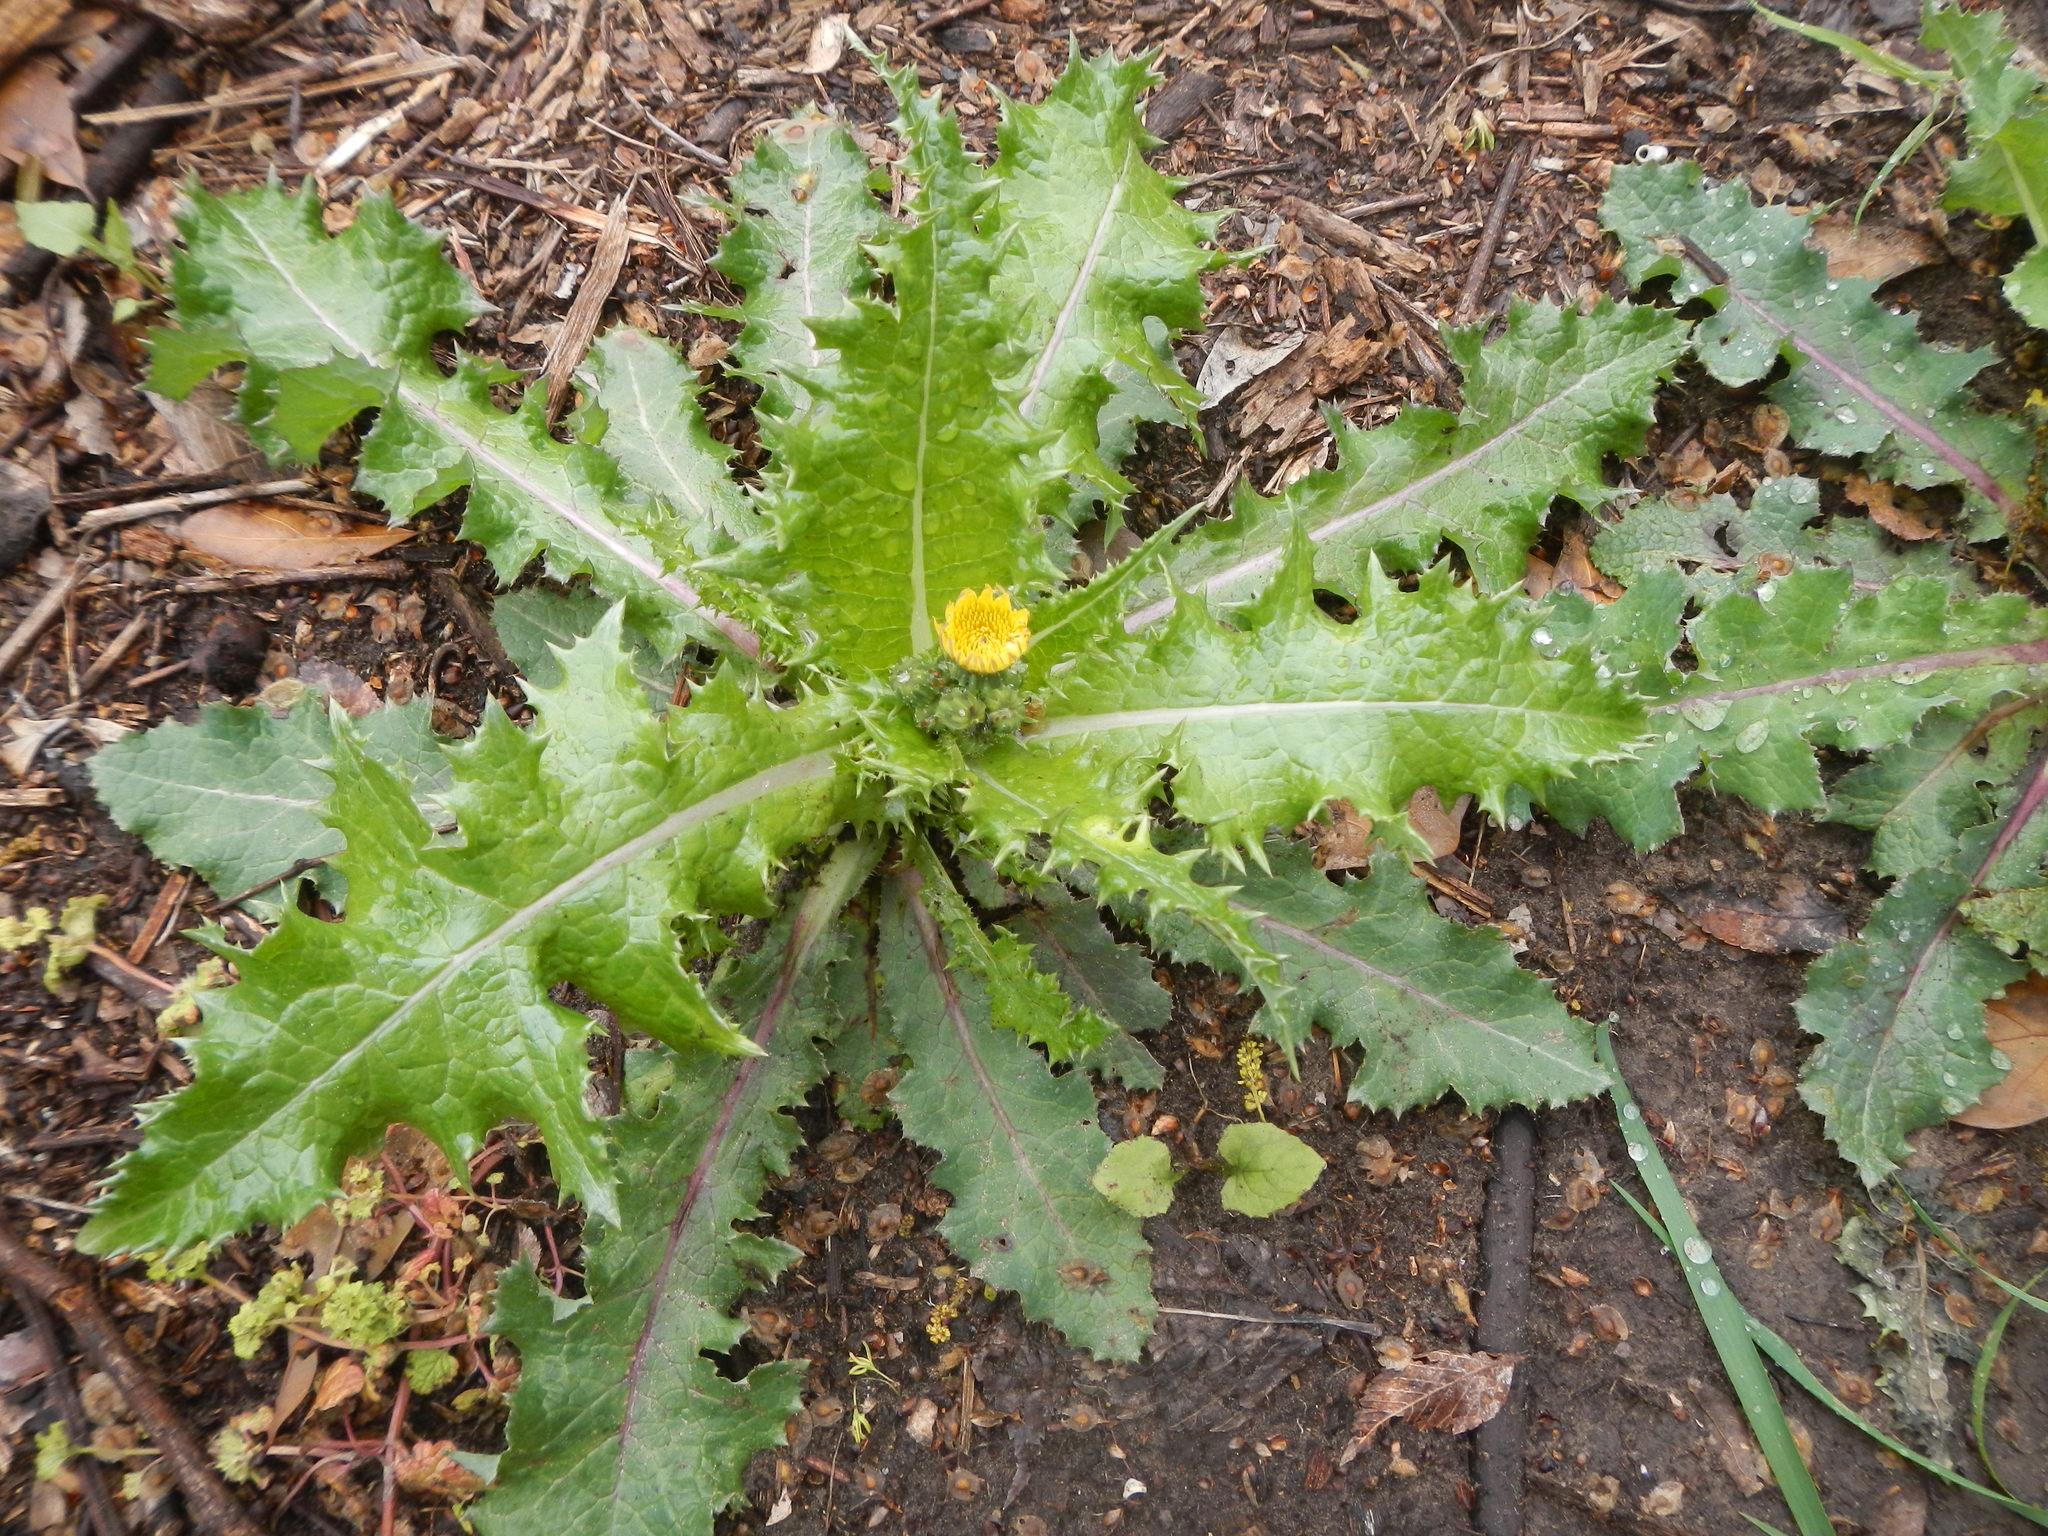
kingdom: Plantae
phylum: Tracheophyta
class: Magnoliopsida
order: Asterales
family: Asteraceae
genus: Sonchus
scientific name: Sonchus asper
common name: Prickly sow-thistle
